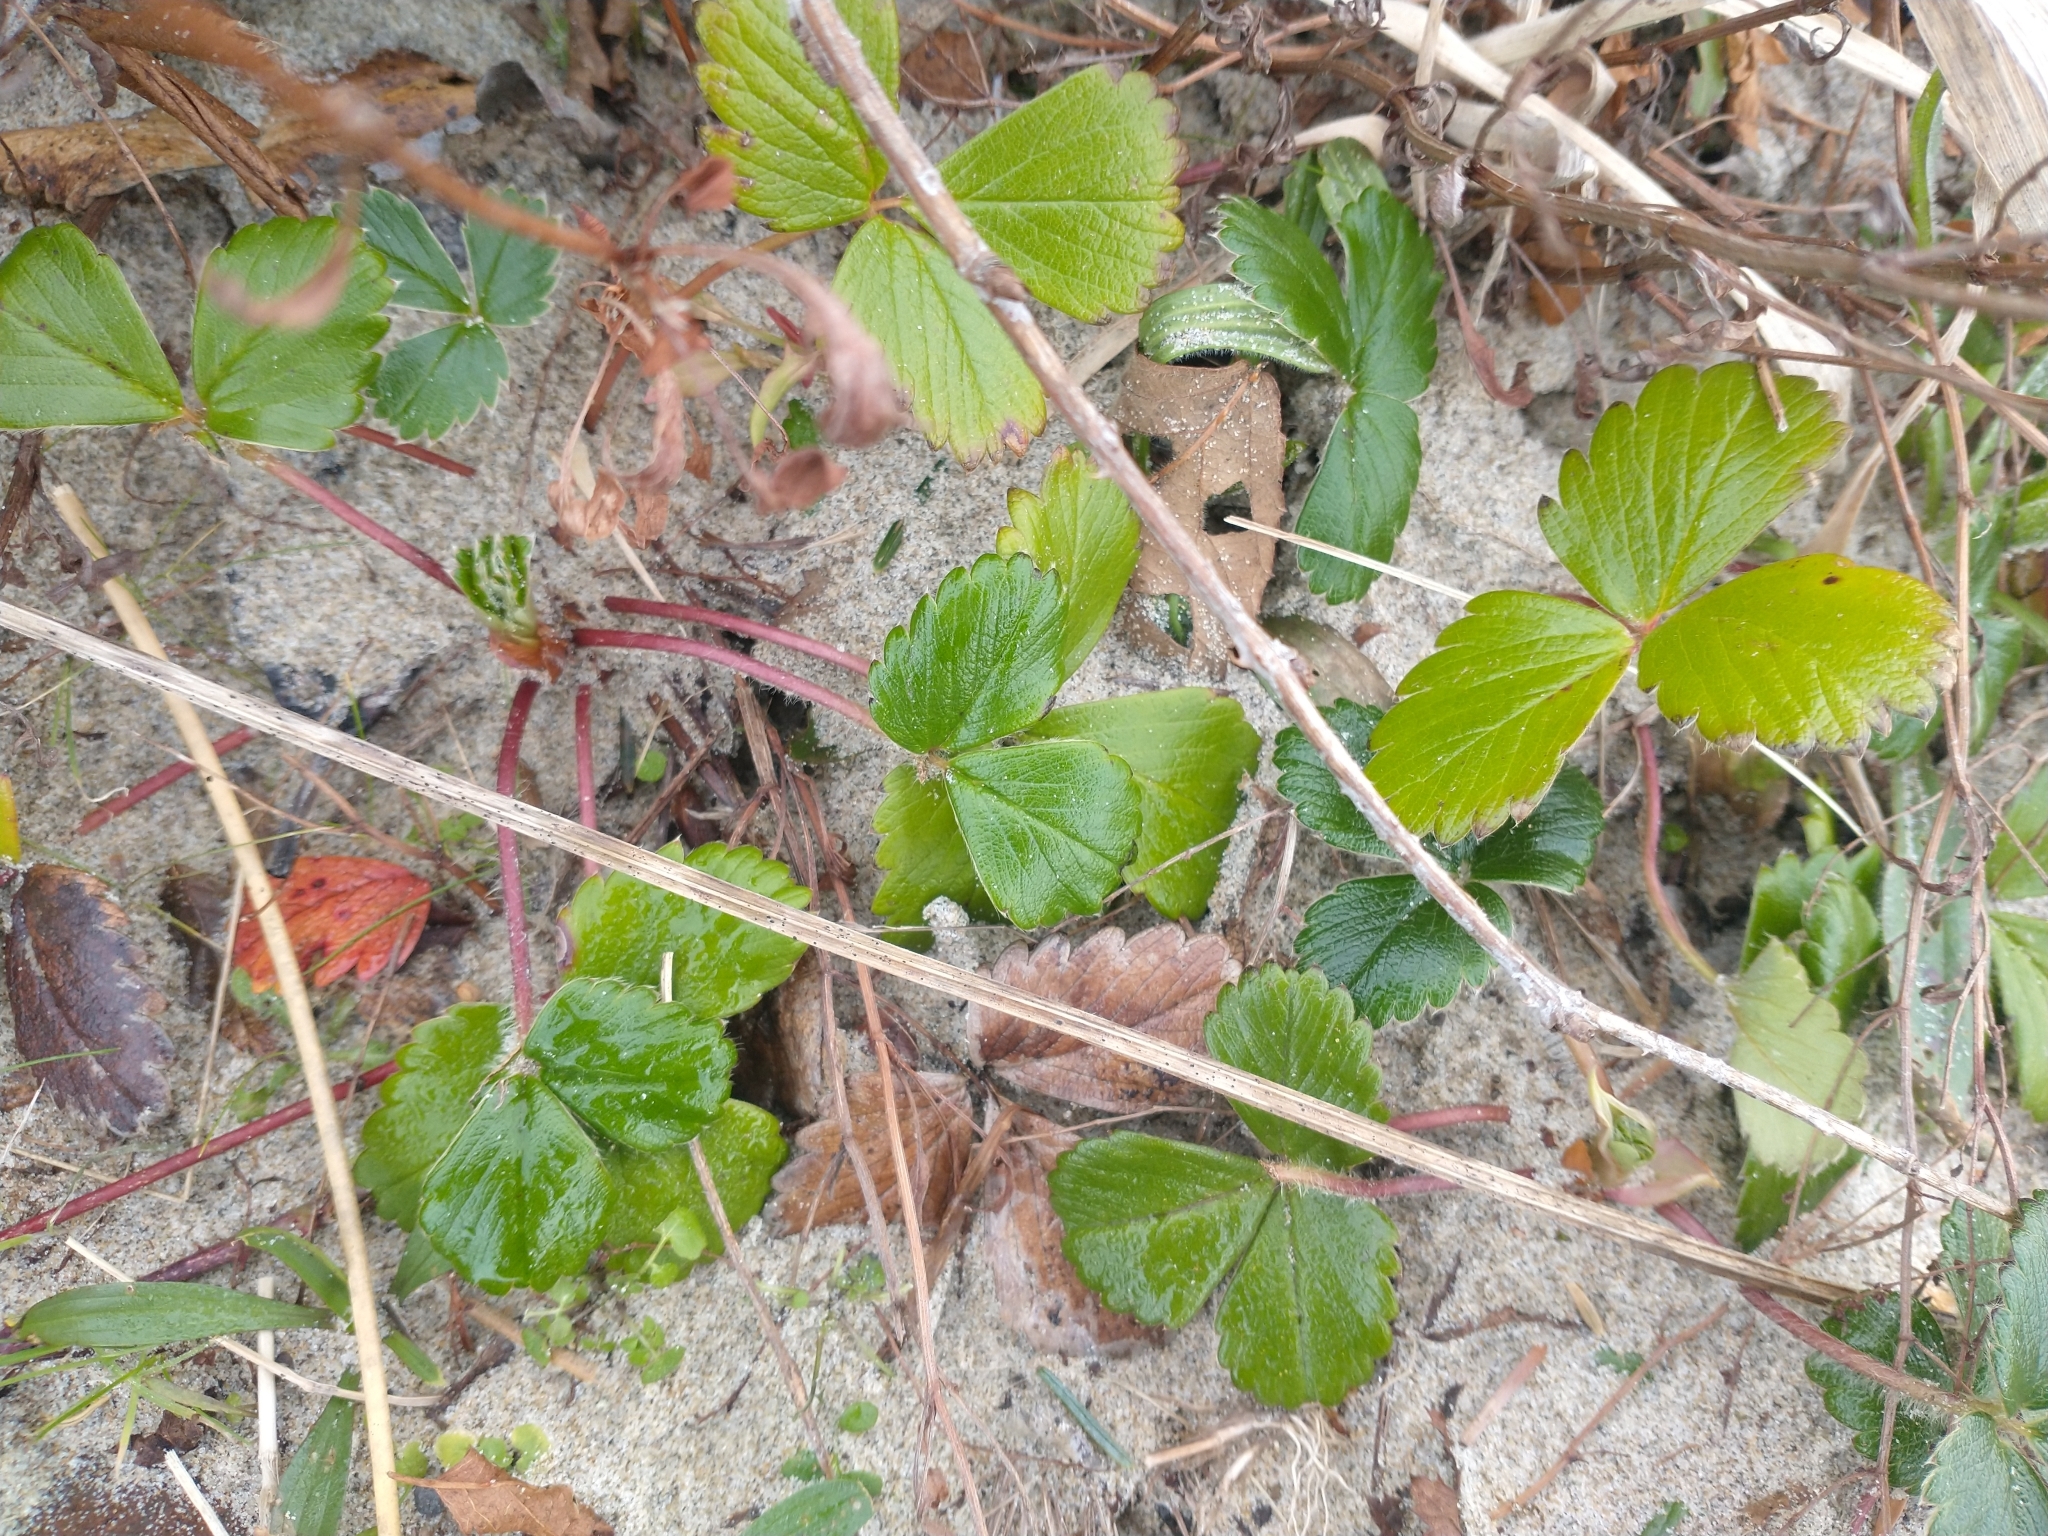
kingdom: Plantae
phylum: Tracheophyta
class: Magnoliopsida
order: Rosales
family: Rosaceae
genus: Fragaria
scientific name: Fragaria chiloensis
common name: Beach strawberry
